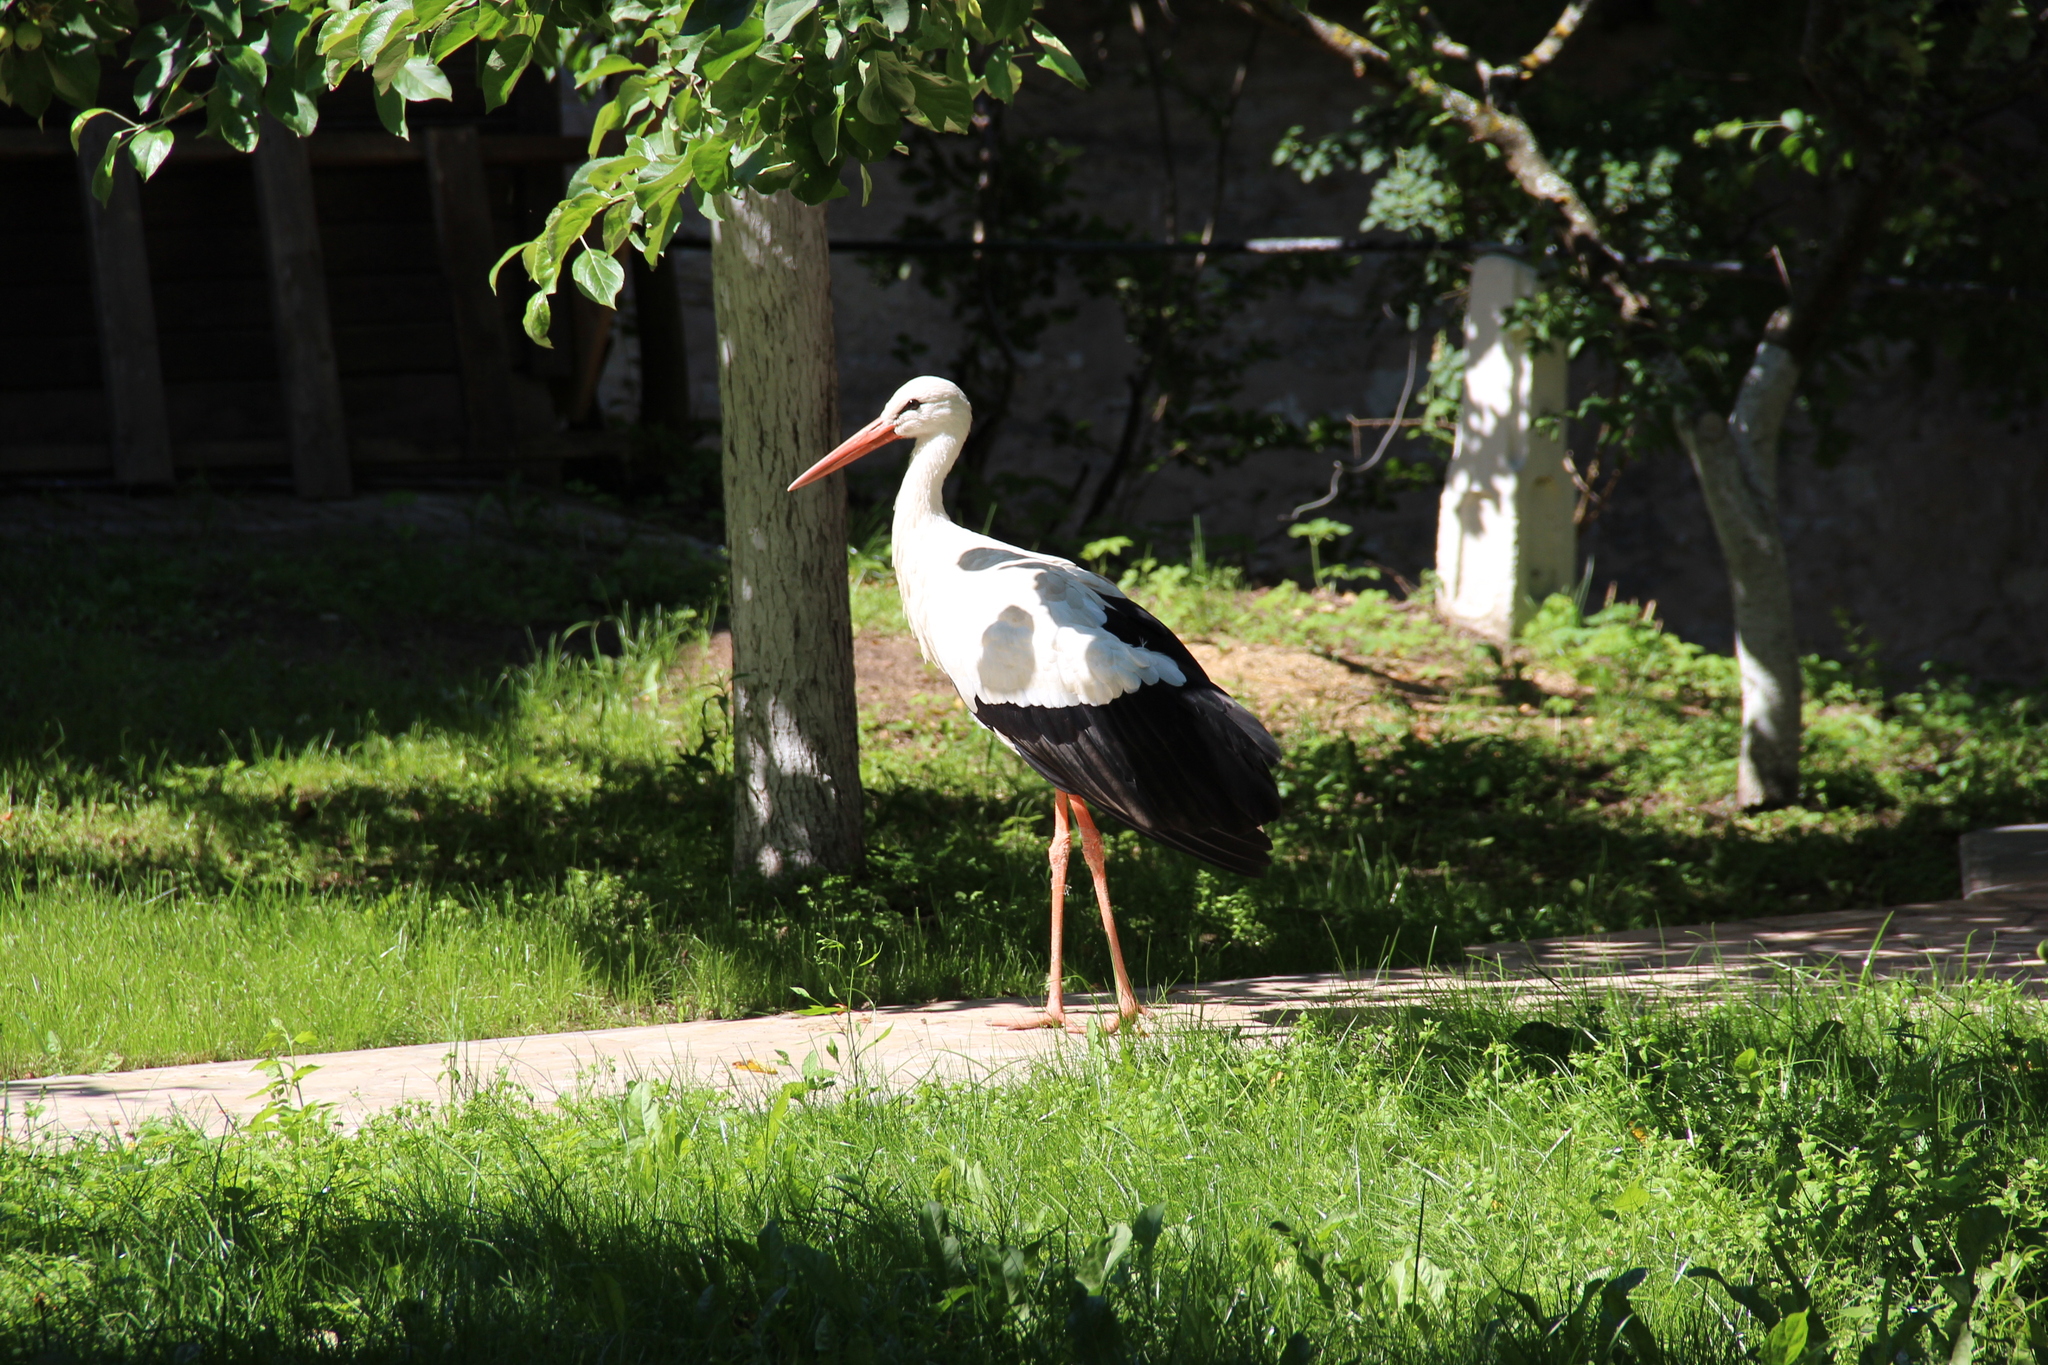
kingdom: Animalia
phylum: Chordata
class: Aves
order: Ciconiiformes
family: Ciconiidae
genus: Ciconia
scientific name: Ciconia ciconia
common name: White stork
